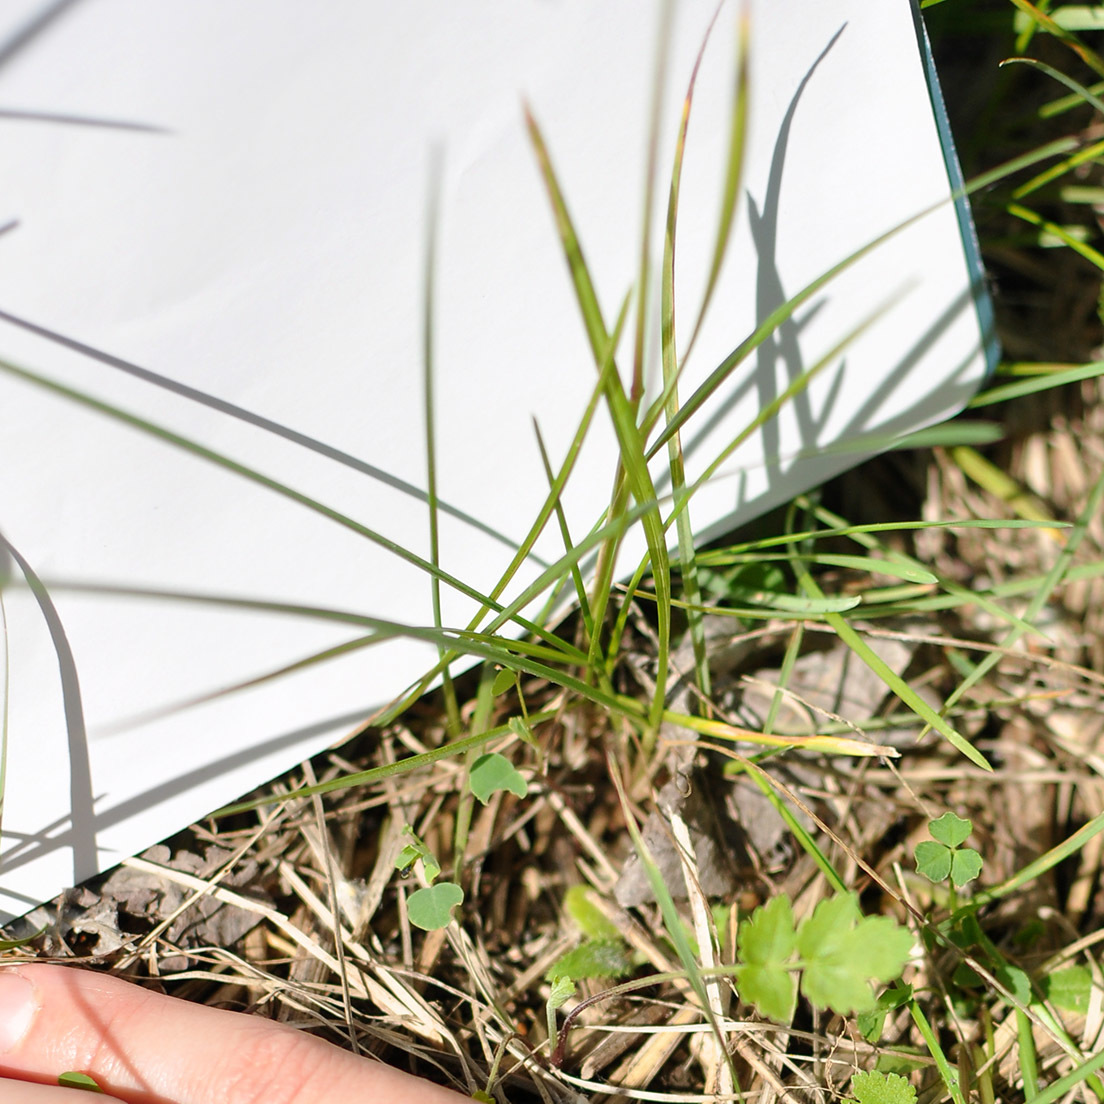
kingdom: Plantae
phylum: Tracheophyta
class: Liliopsida
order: Poales
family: Poaceae
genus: Poa
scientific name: Poa pratensis
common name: Kentucky bluegrass
